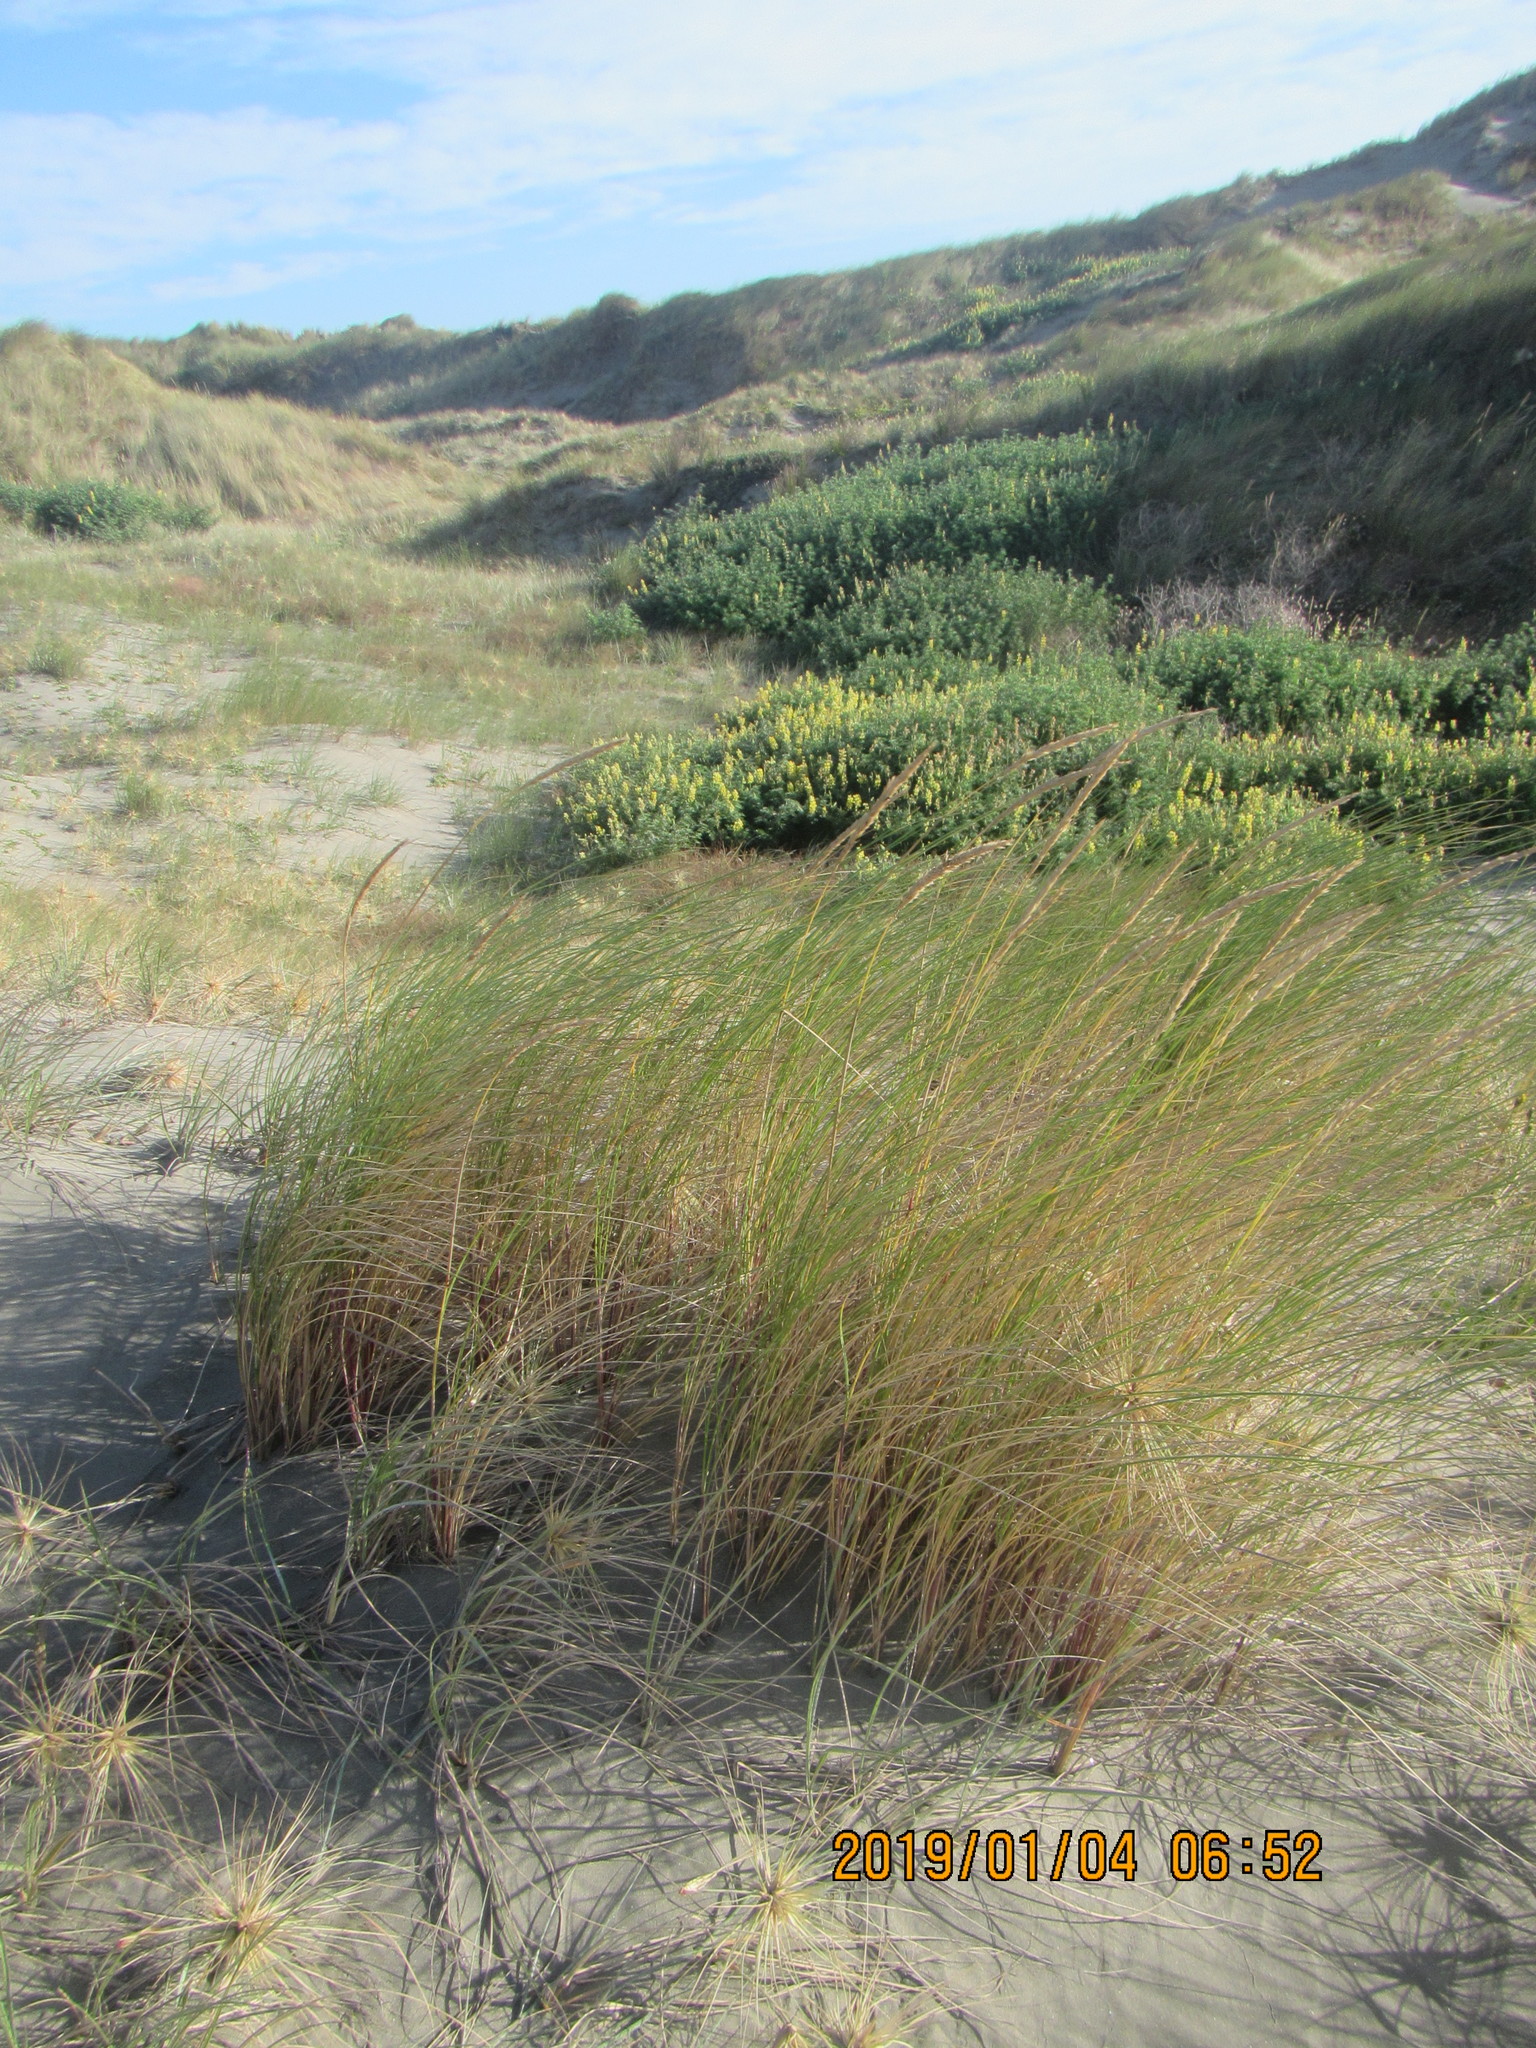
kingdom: Plantae
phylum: Tracheophyta
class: Liliopsida
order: Poales
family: Poaceae
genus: Calamagrostis
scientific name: Calamagrostis arenaria
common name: European beachgrass
